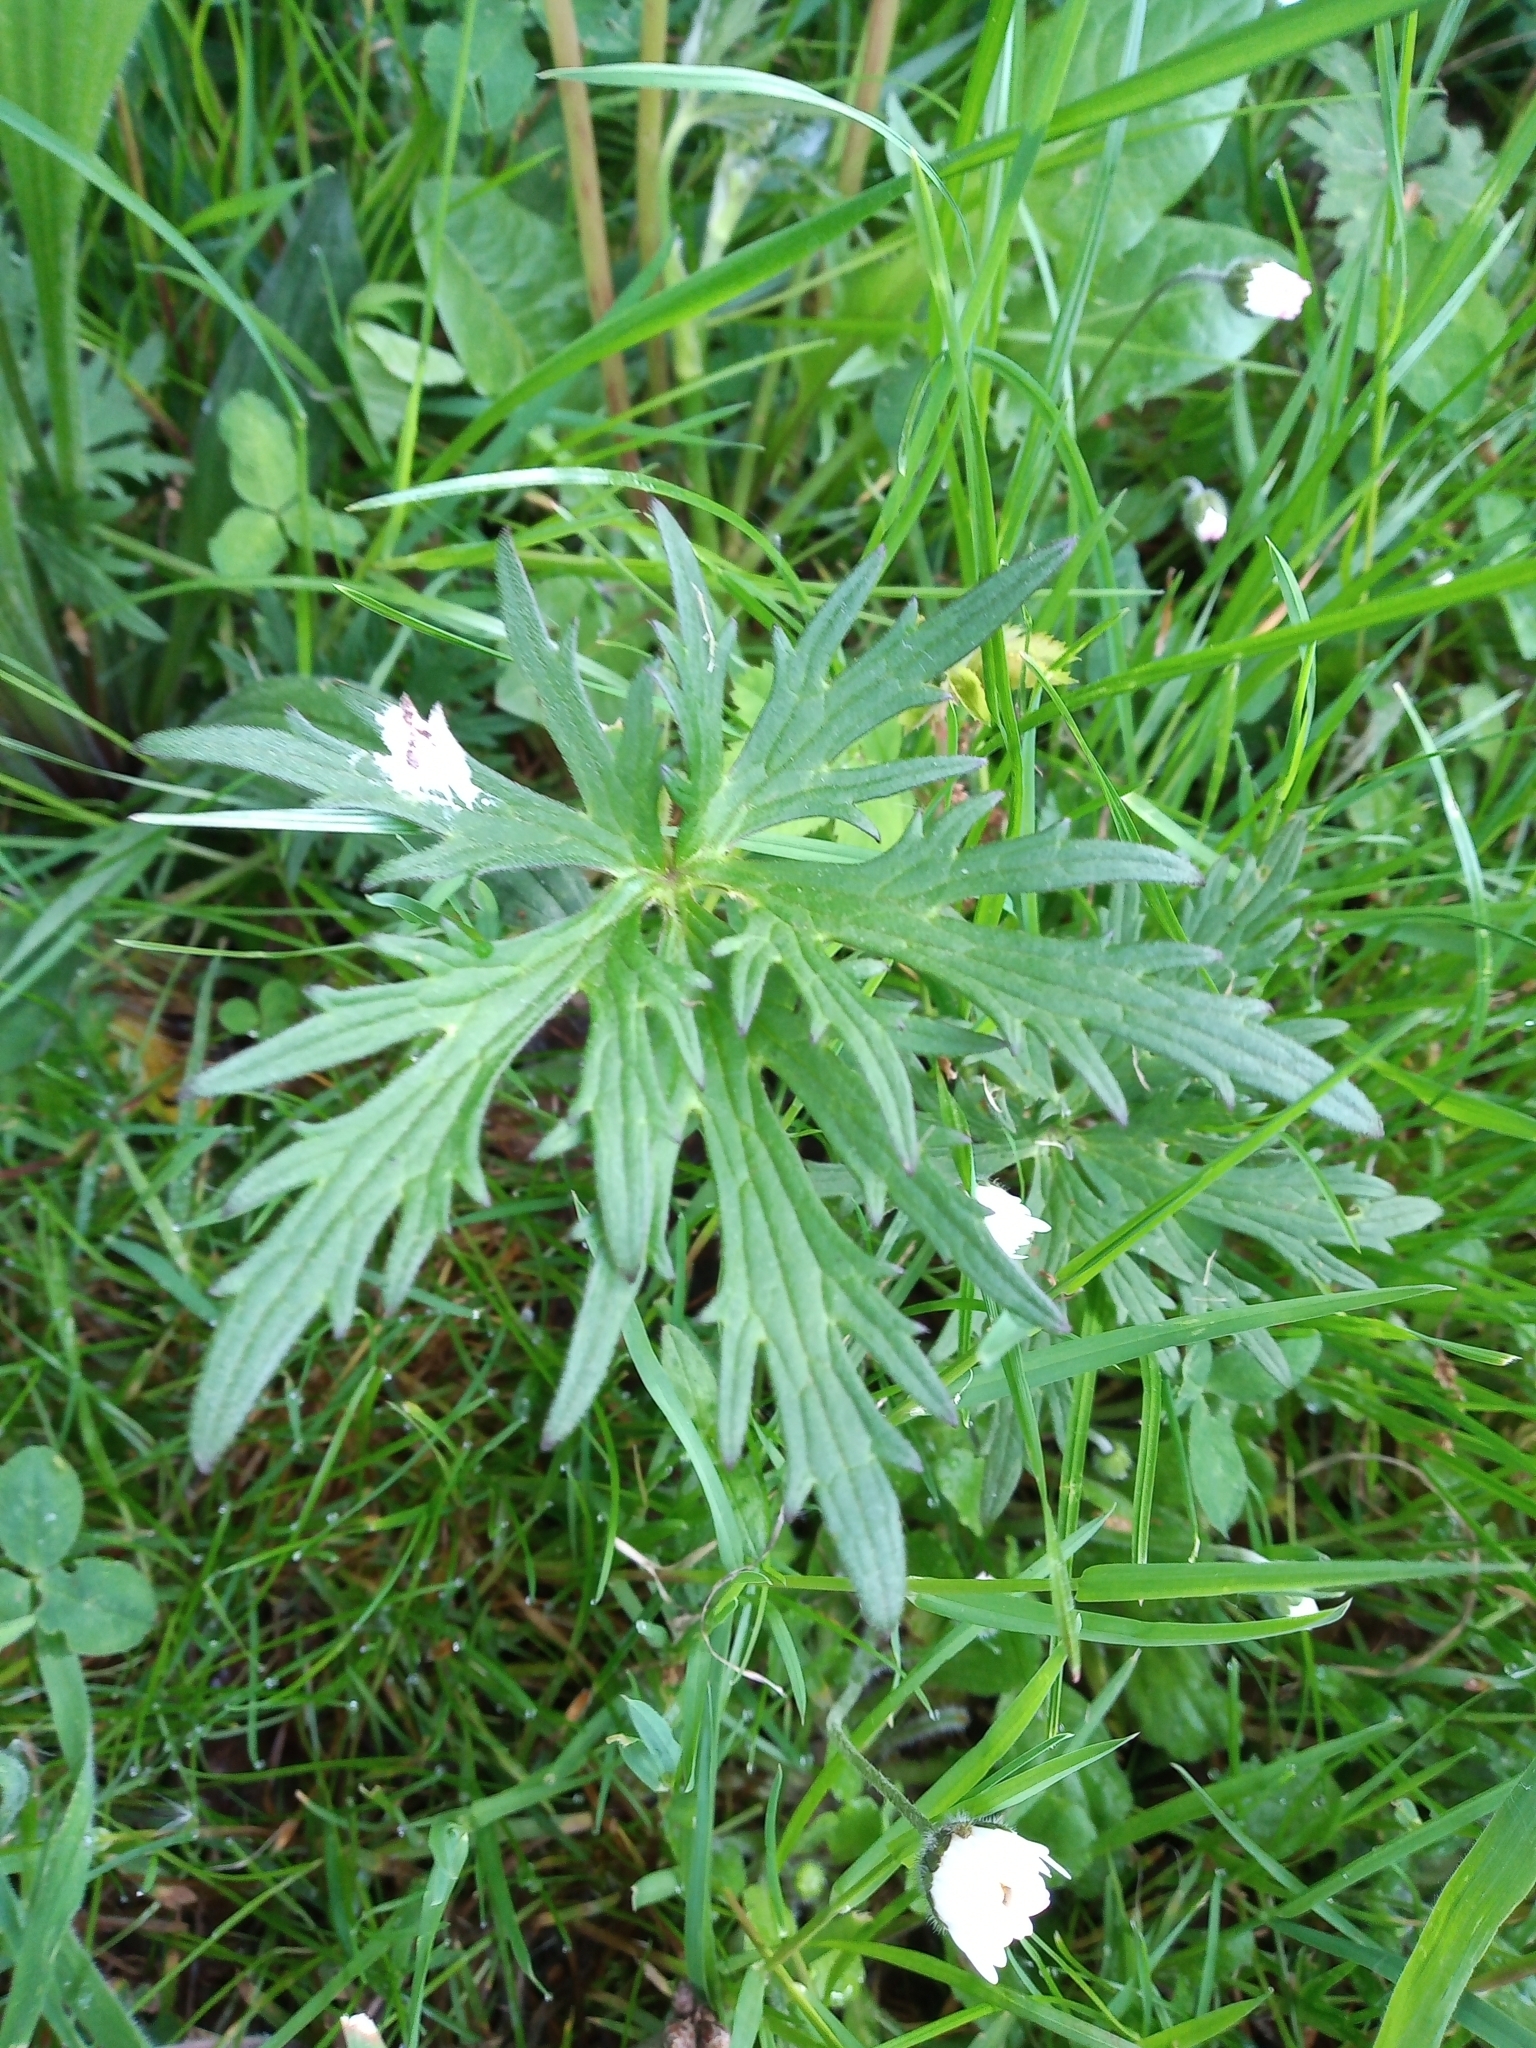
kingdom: Plantae
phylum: Tracheophyta
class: Magnoliopsida
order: Ranunculales
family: Ranunculaceae
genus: Ranunculus
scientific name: Ranunculus acris
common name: Meadow buttercup
